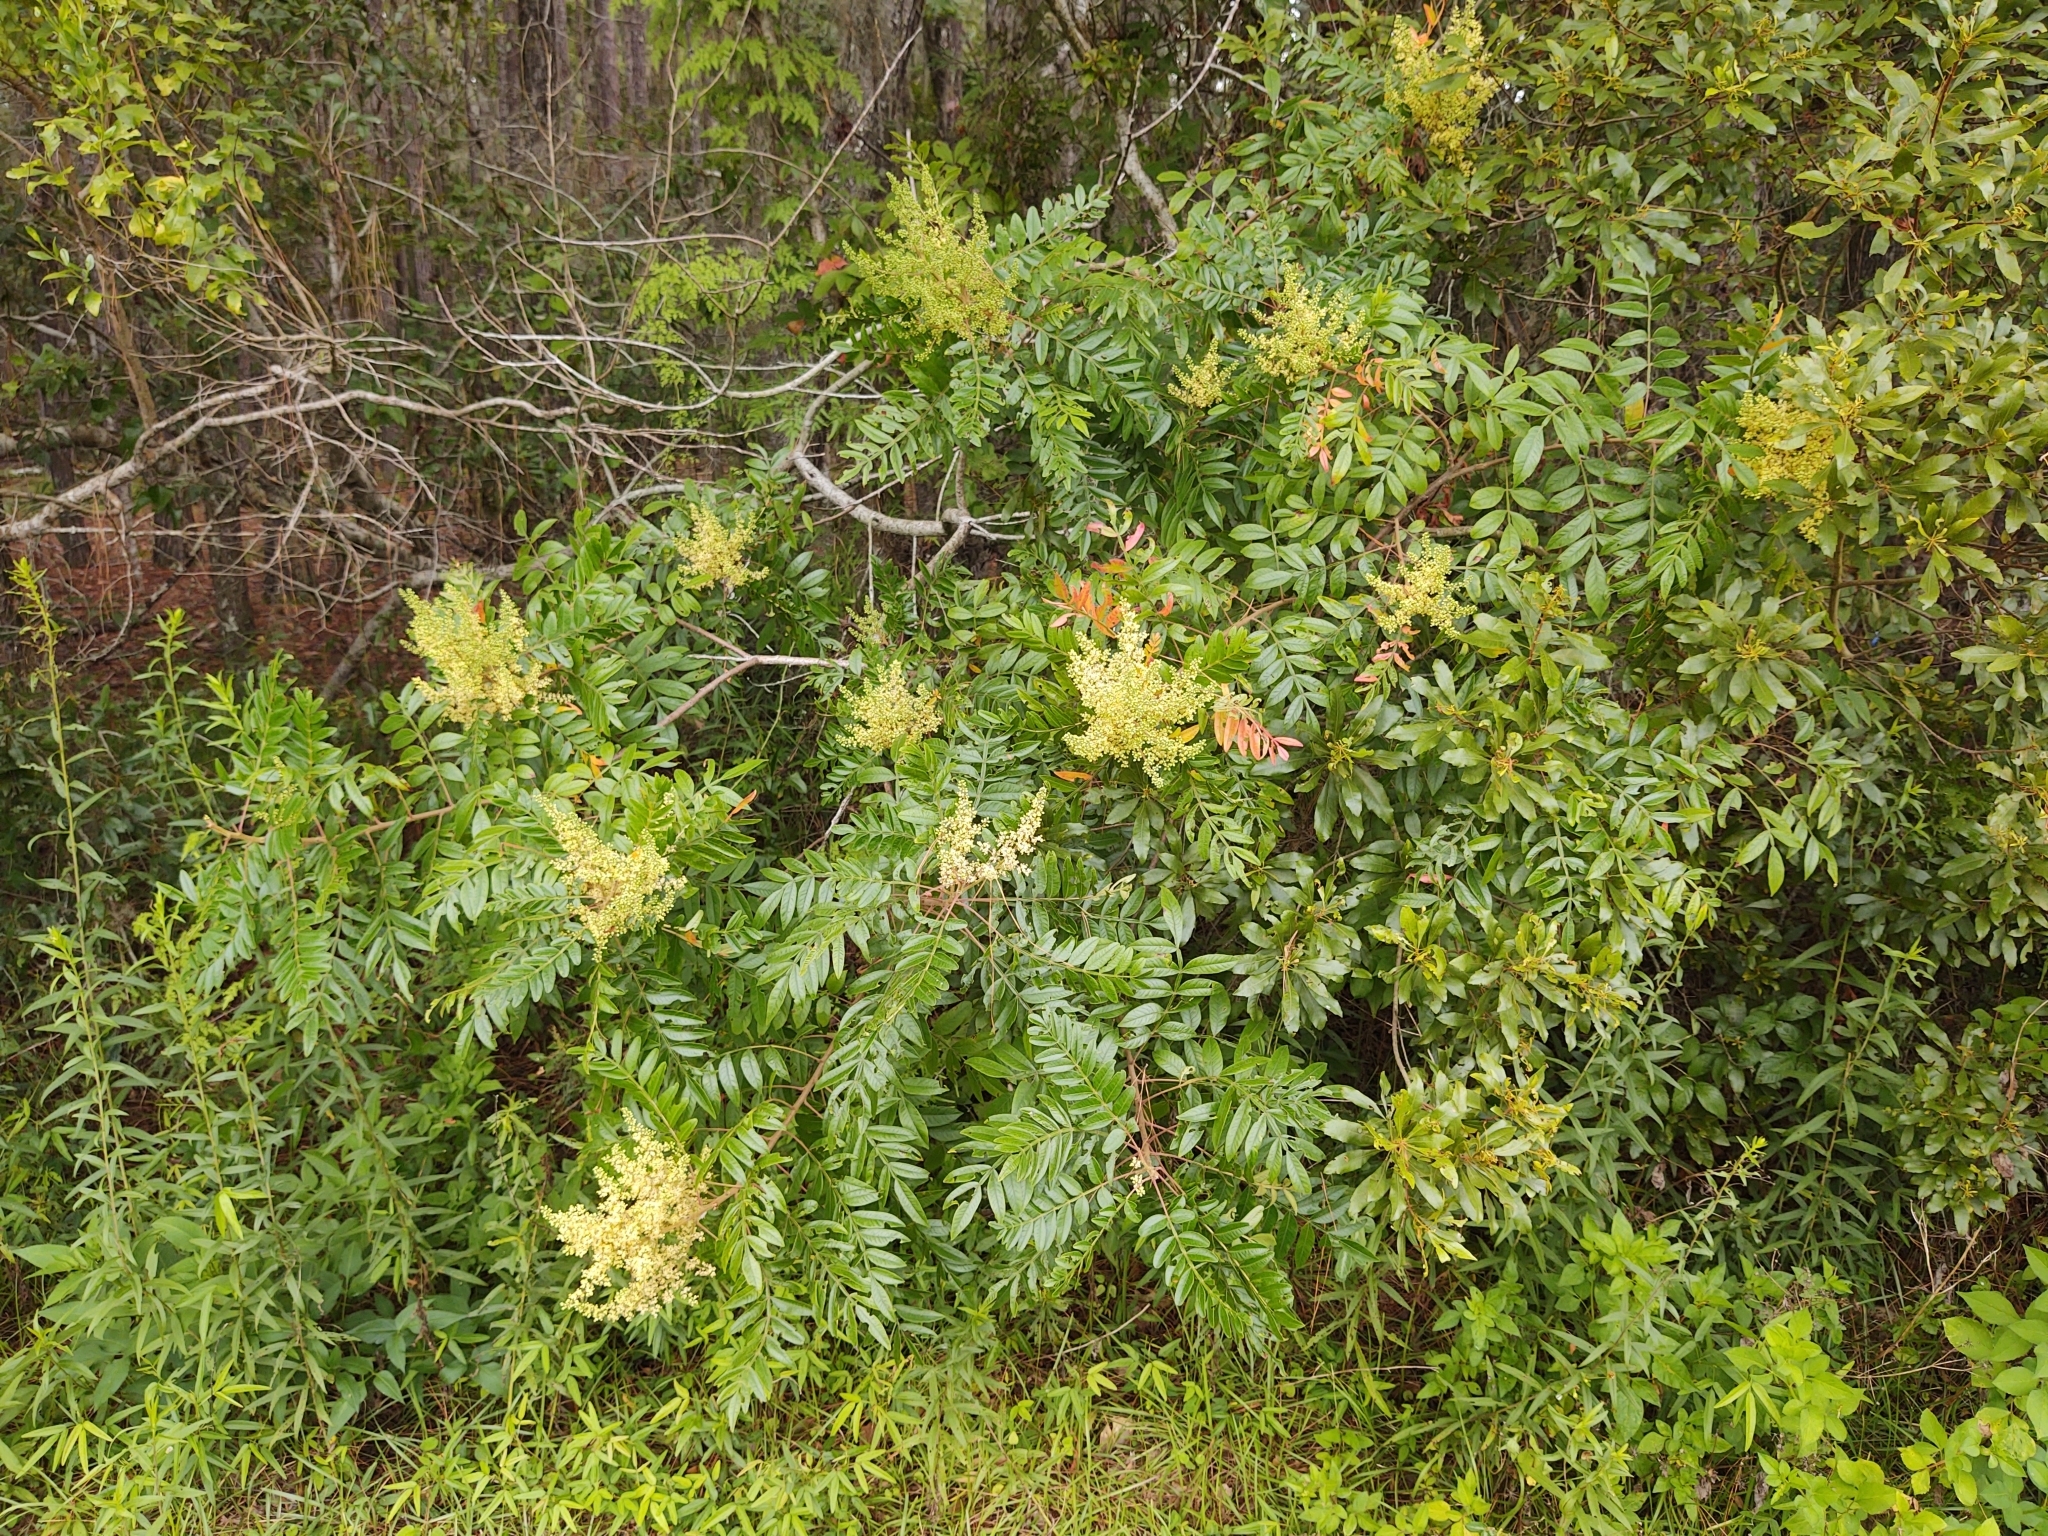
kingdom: Plantae
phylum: Tracheophyta
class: Magnoliopsida
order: Sapindales
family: Anacardiaceae
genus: Rhus
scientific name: Rhus copallina
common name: Shining sumac
